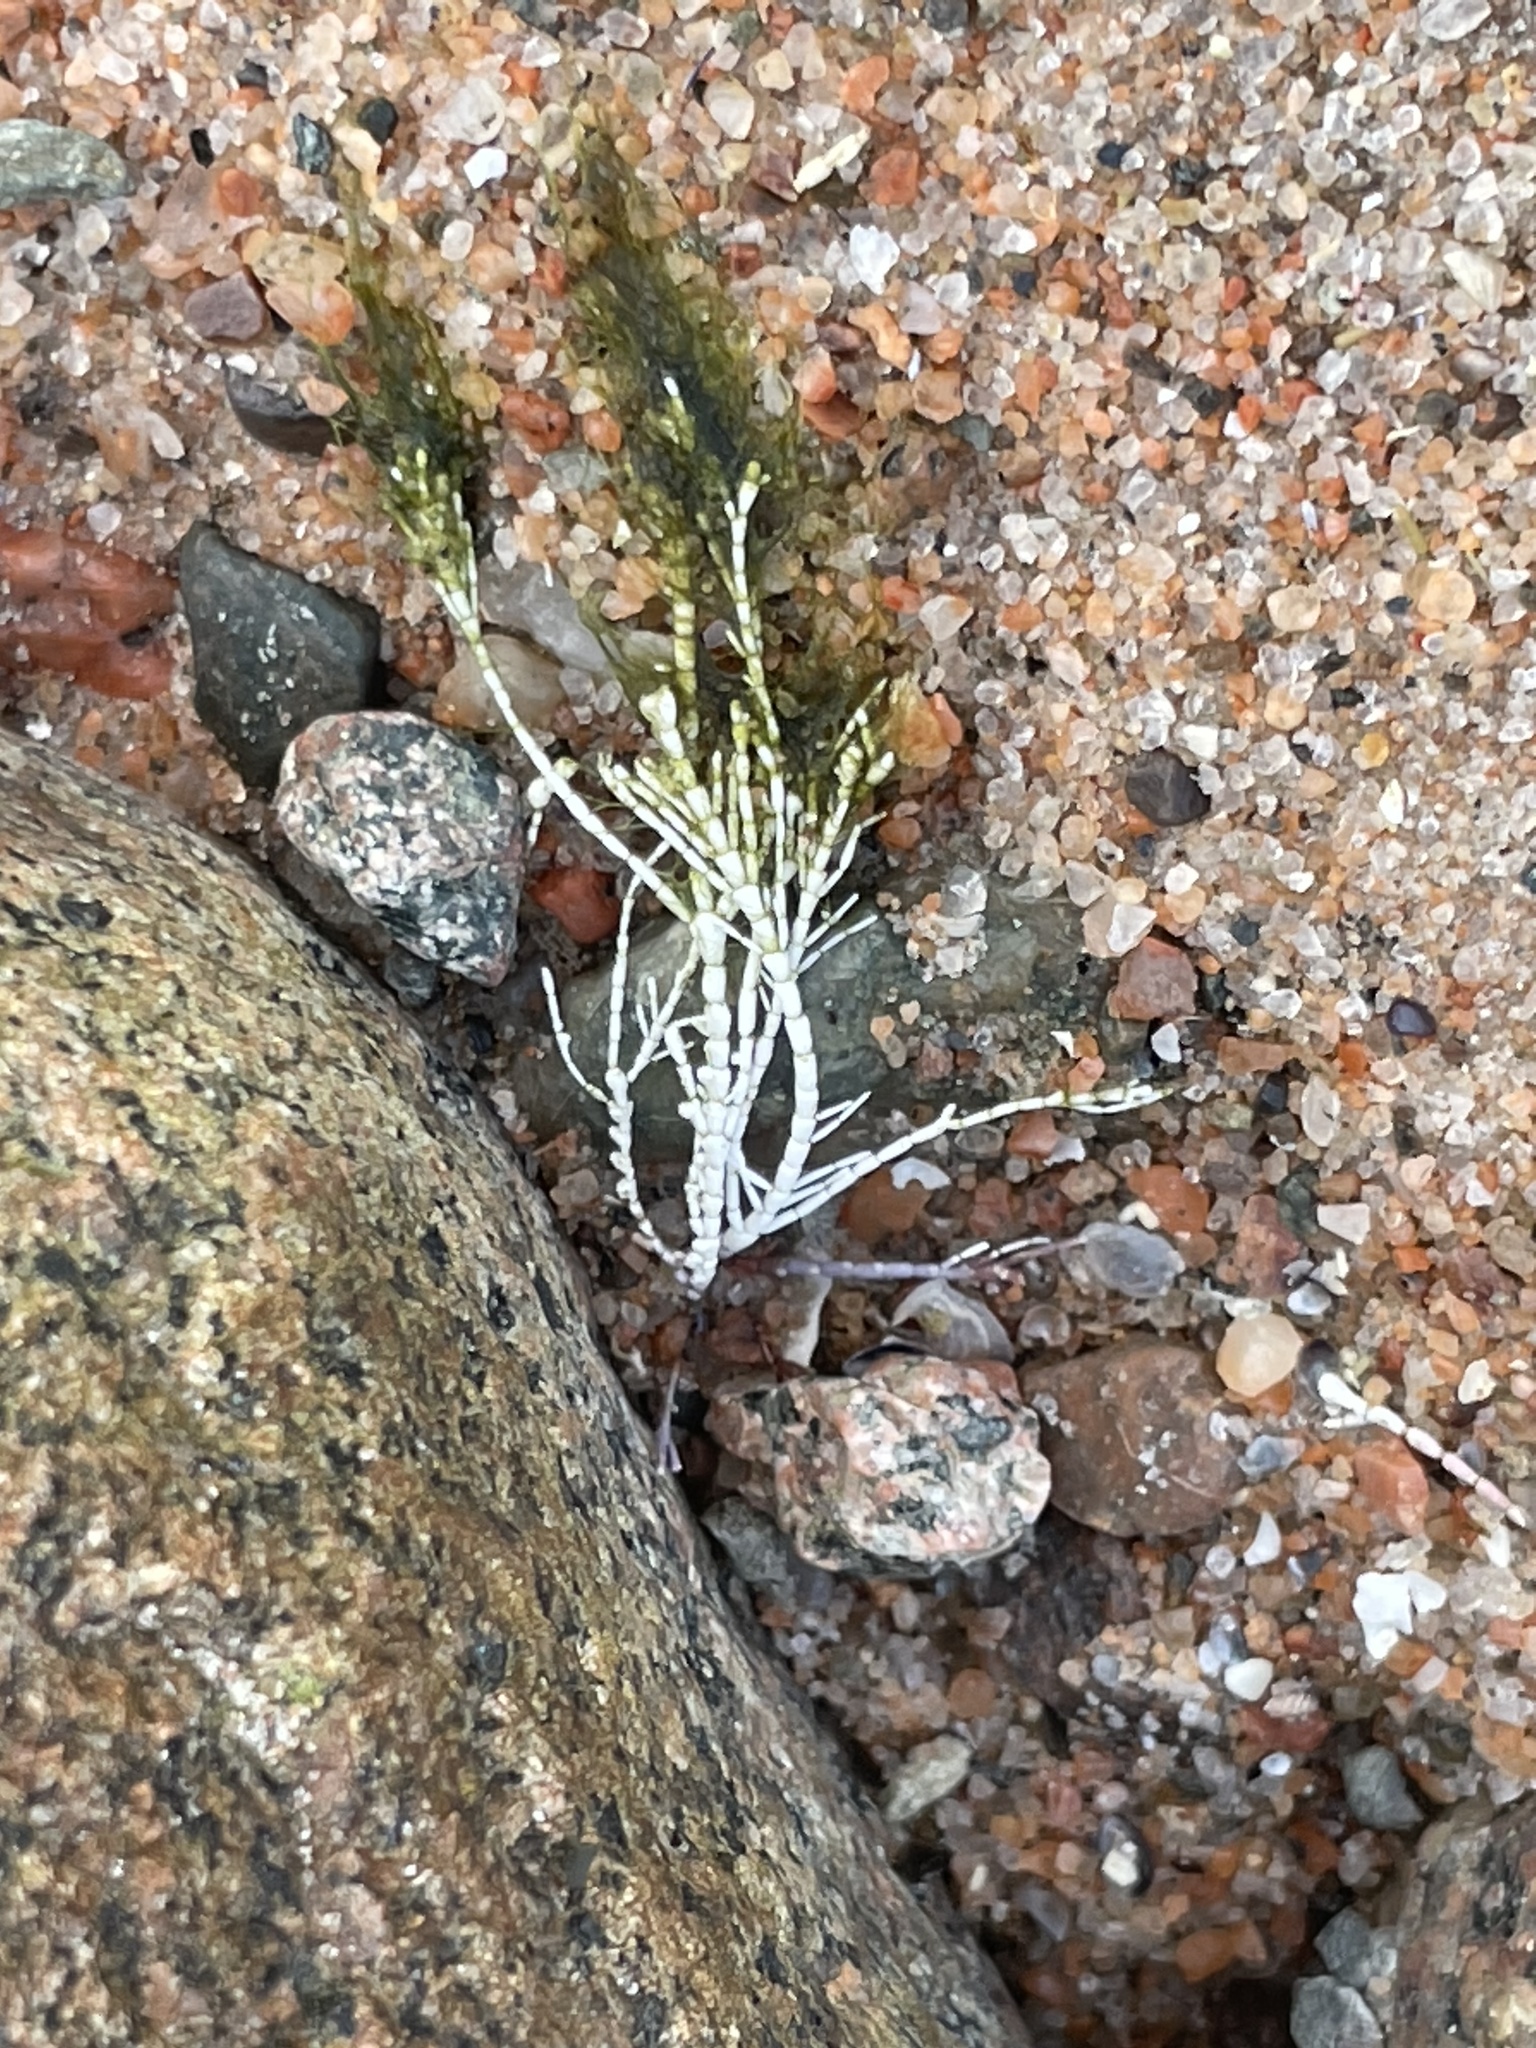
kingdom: Plantae
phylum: Rhodophyta
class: Florideophyceae
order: Corallinales
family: Corallinaceae
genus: Corallina
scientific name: Corallina officinalis
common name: Coral weed
